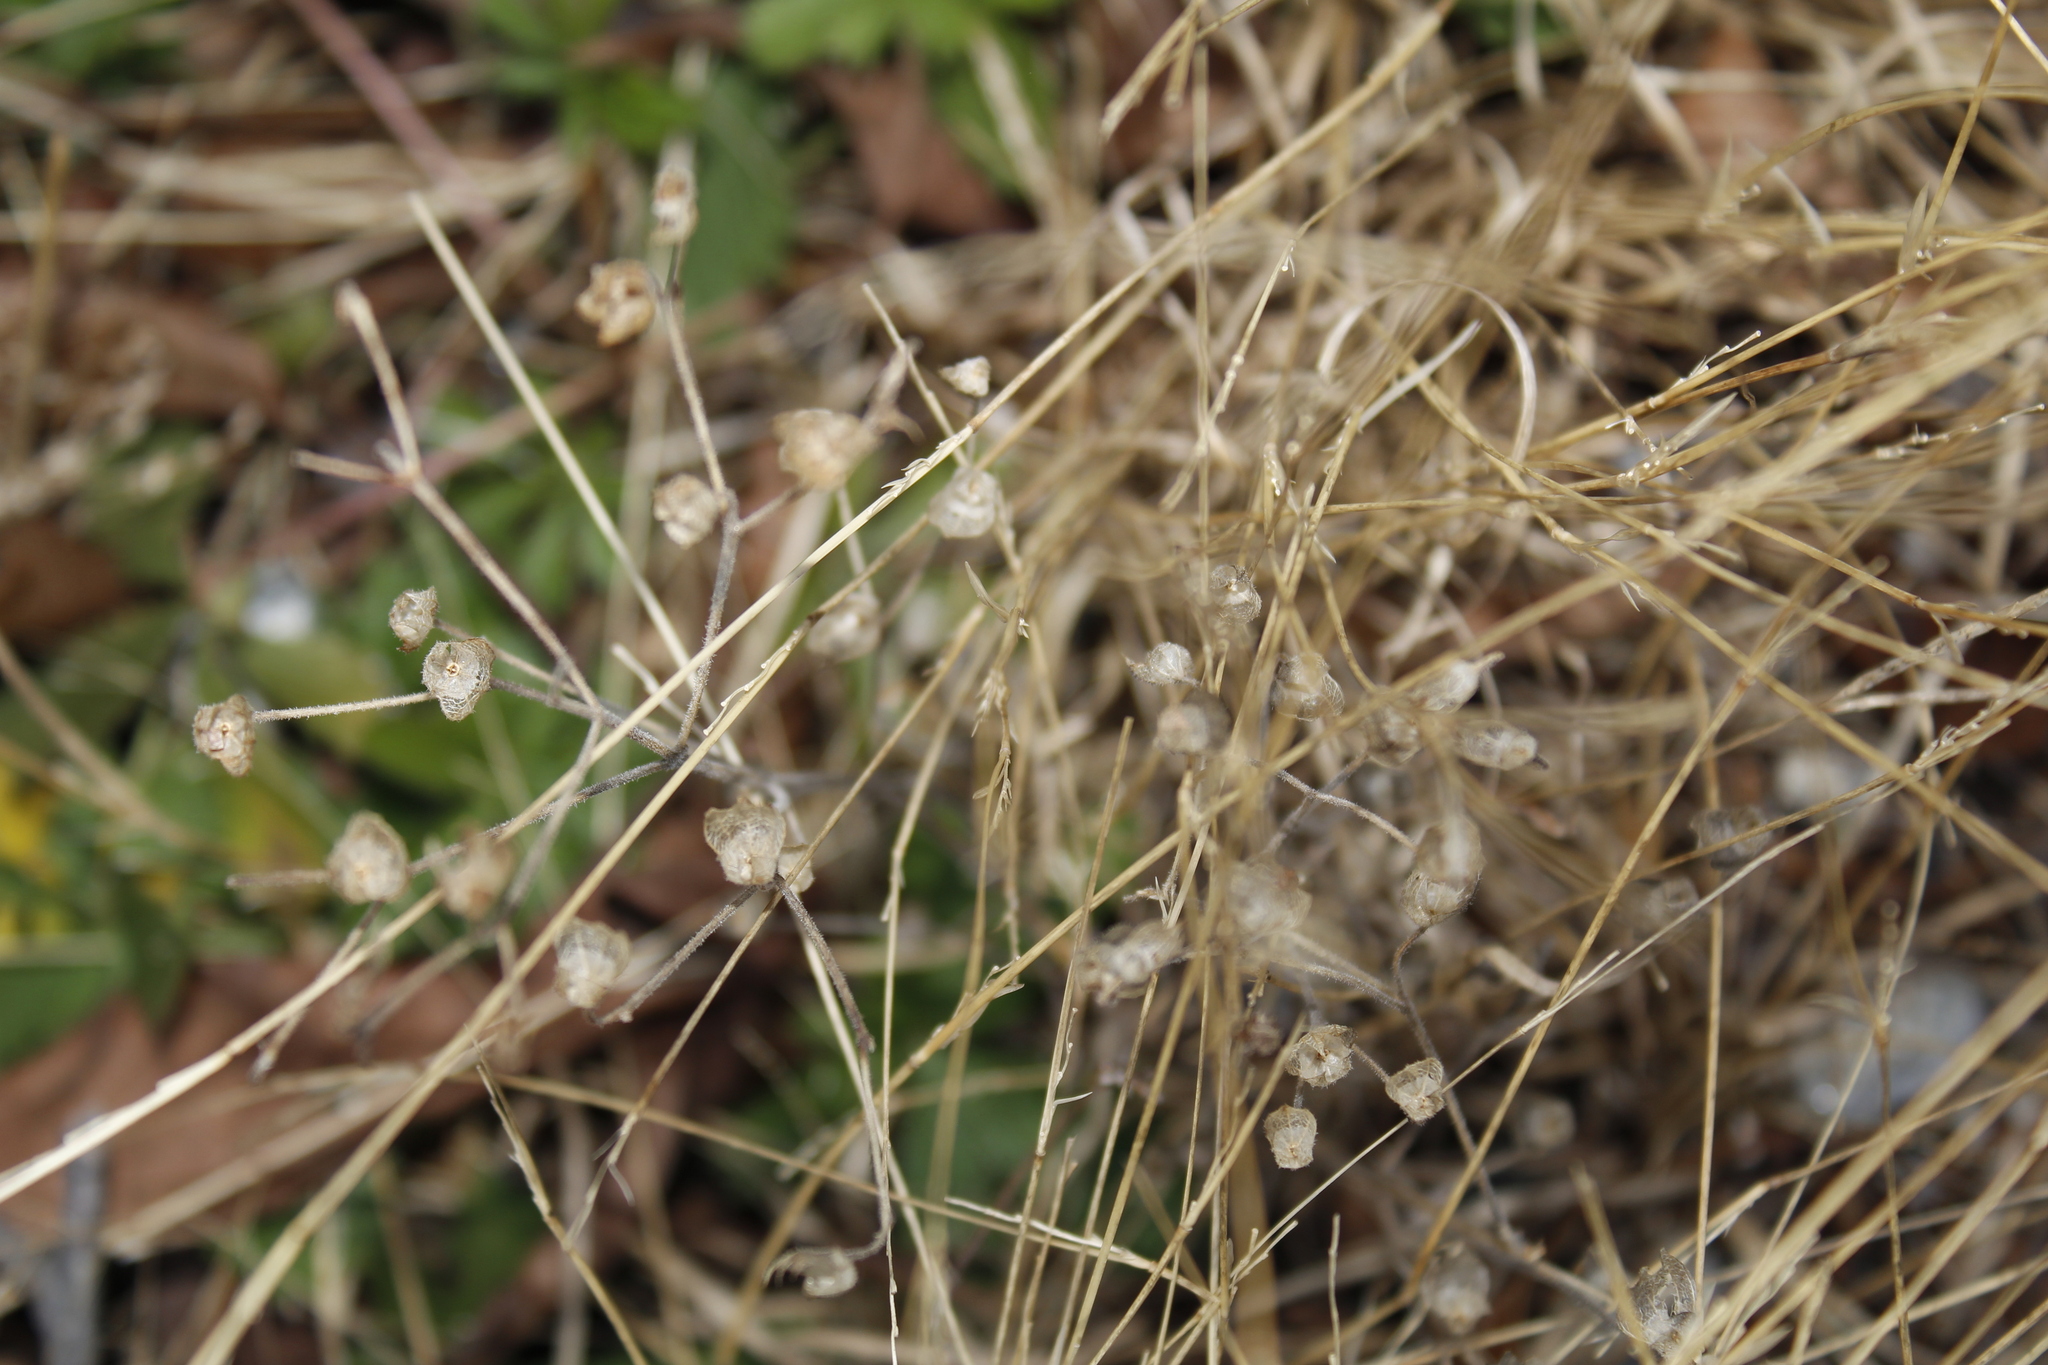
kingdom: Plantae
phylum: Tracheophyta
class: Magnoliopsida
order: Lamiales
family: Lamiaceae
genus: Trichostema
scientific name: Trichostema dichotomum
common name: Bastard pennyroyal
